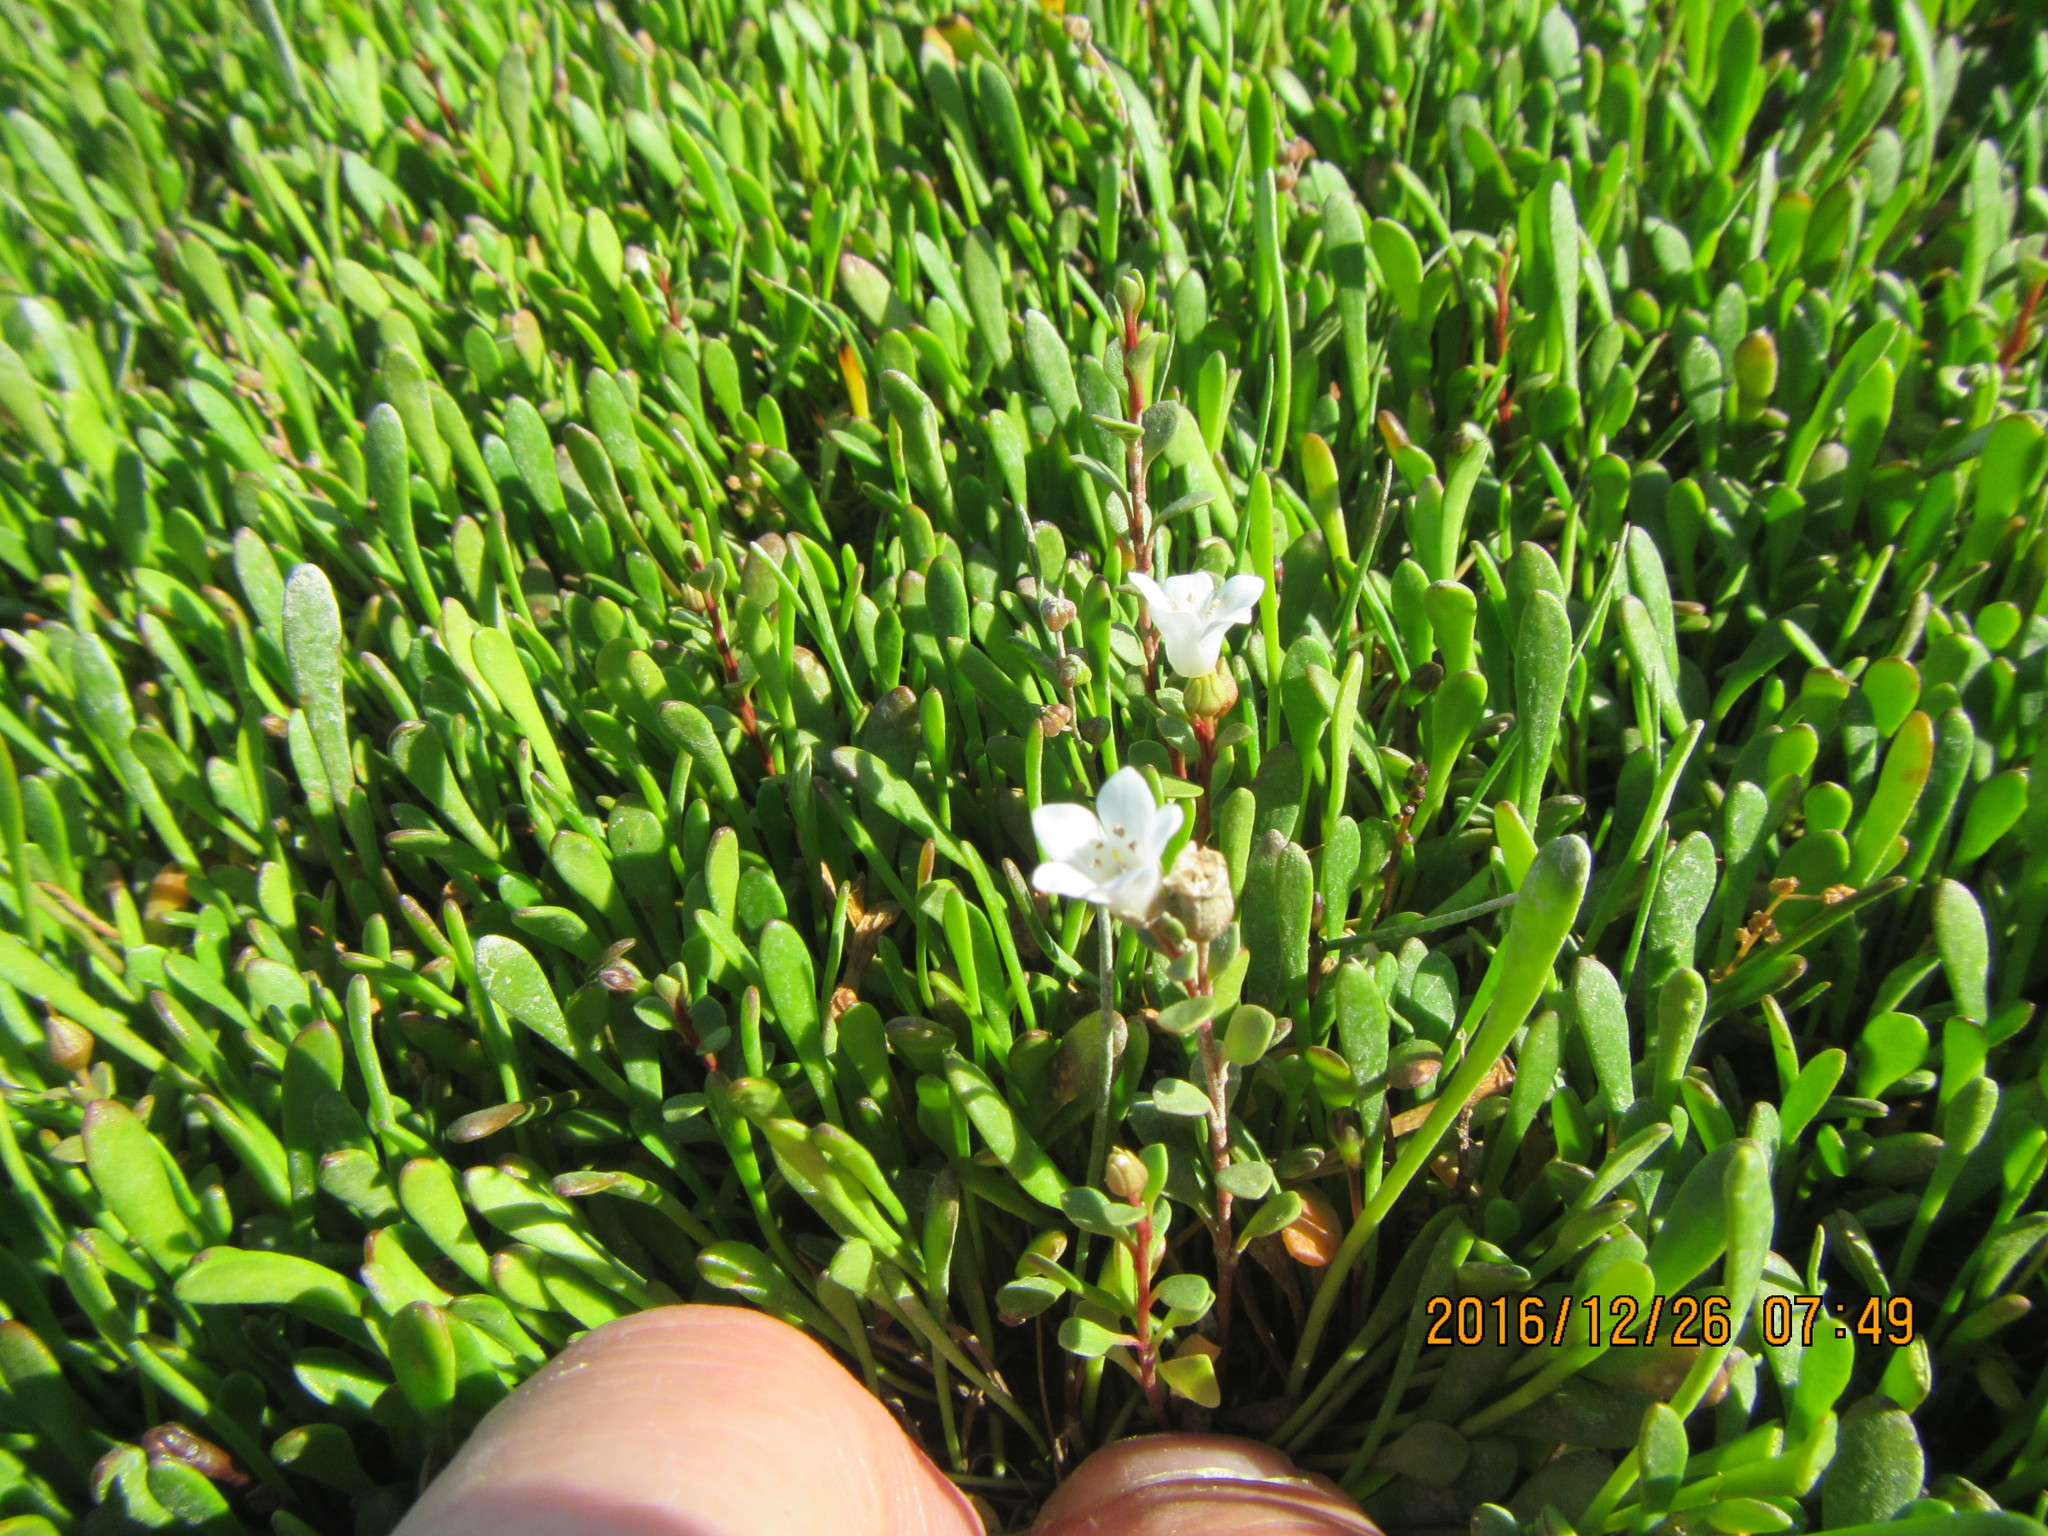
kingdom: Plantae
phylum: Tracheophyta
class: Magnoliopsida
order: Asterales
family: Goodeniaceae
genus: Goodenia
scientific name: Goodenia radicans
